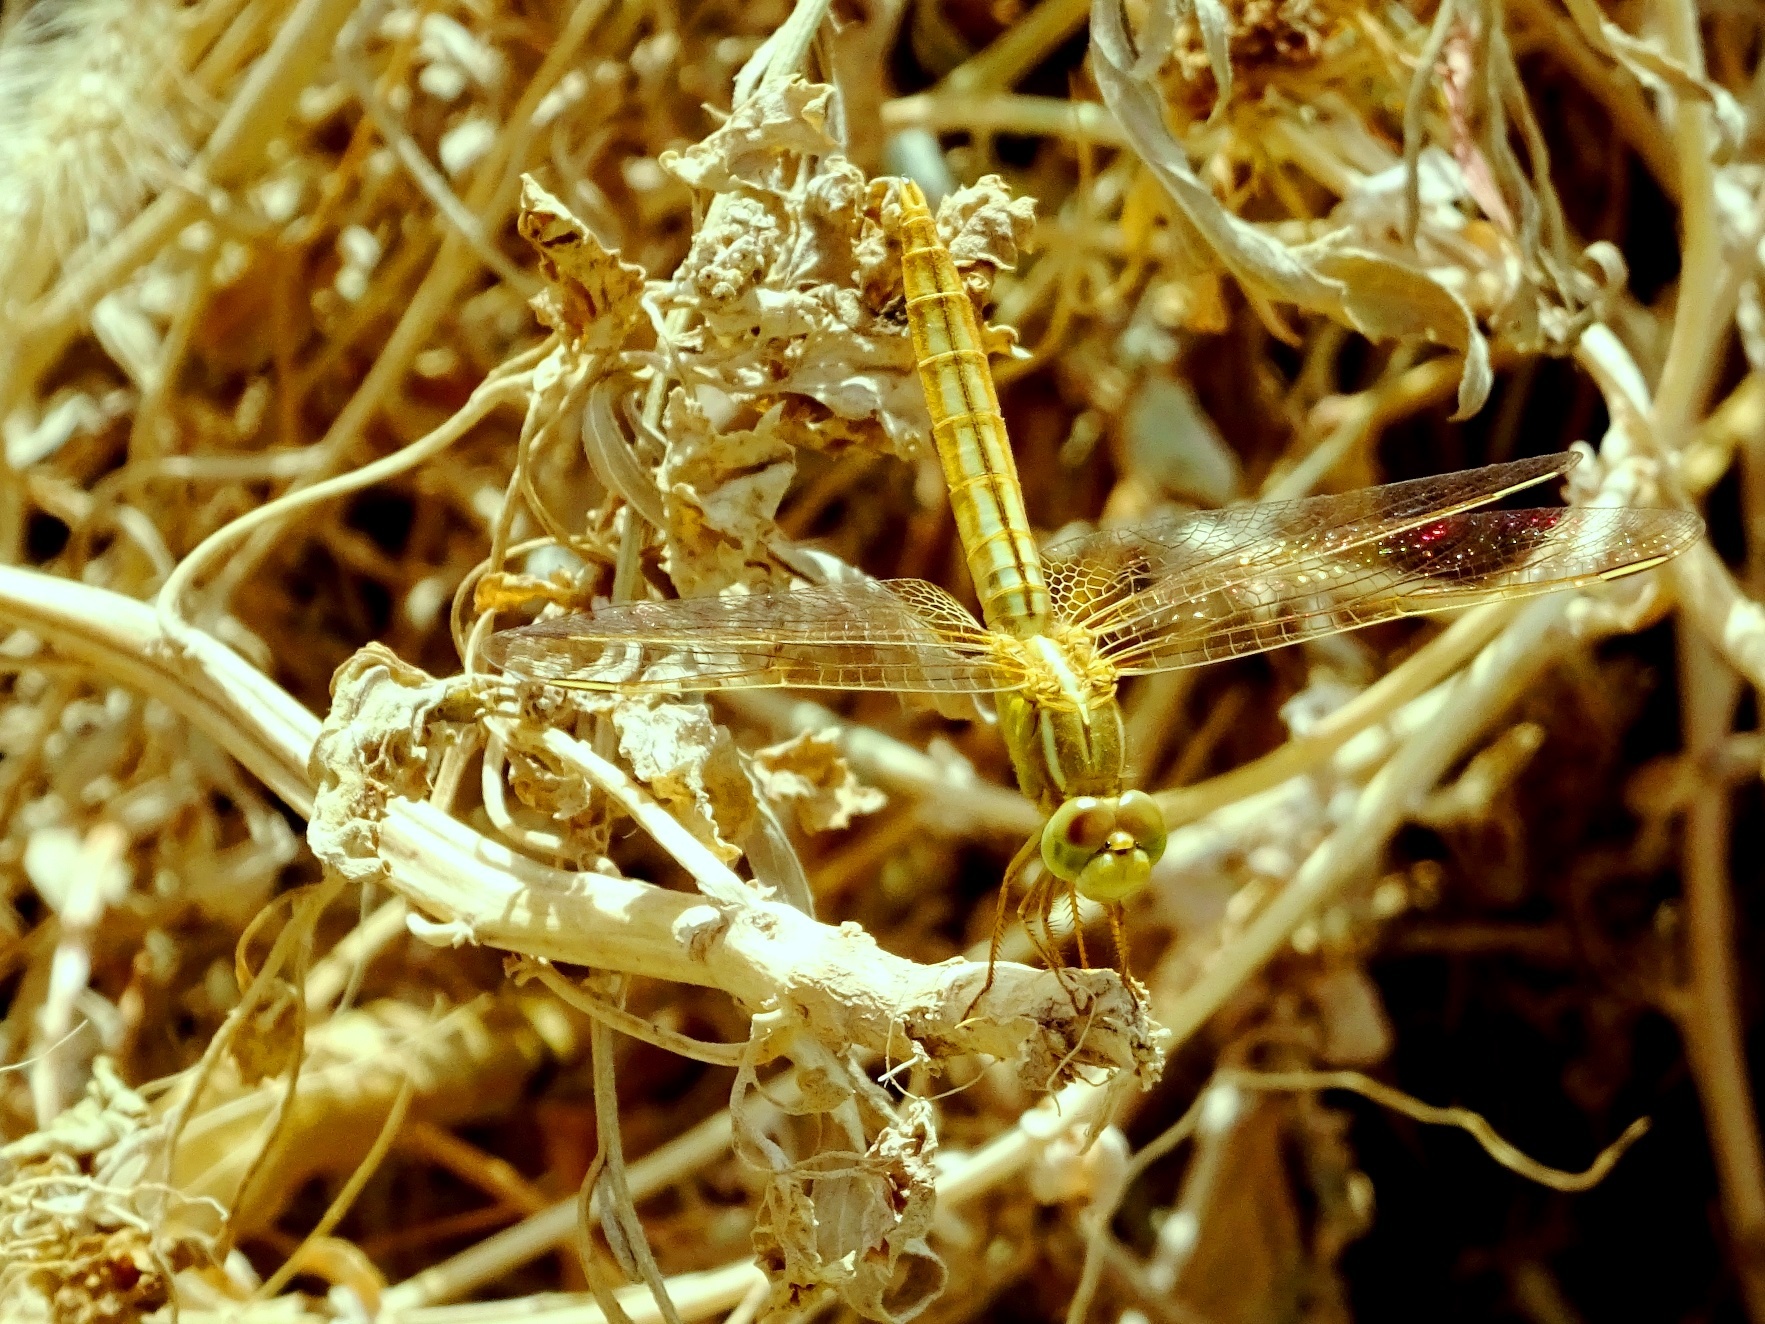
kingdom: Animalia
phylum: Arthropoda
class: Insecta
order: Odonata
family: Libellulidae
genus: Crocothemis
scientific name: Crocothemis servilia
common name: Scarlet skimmer
